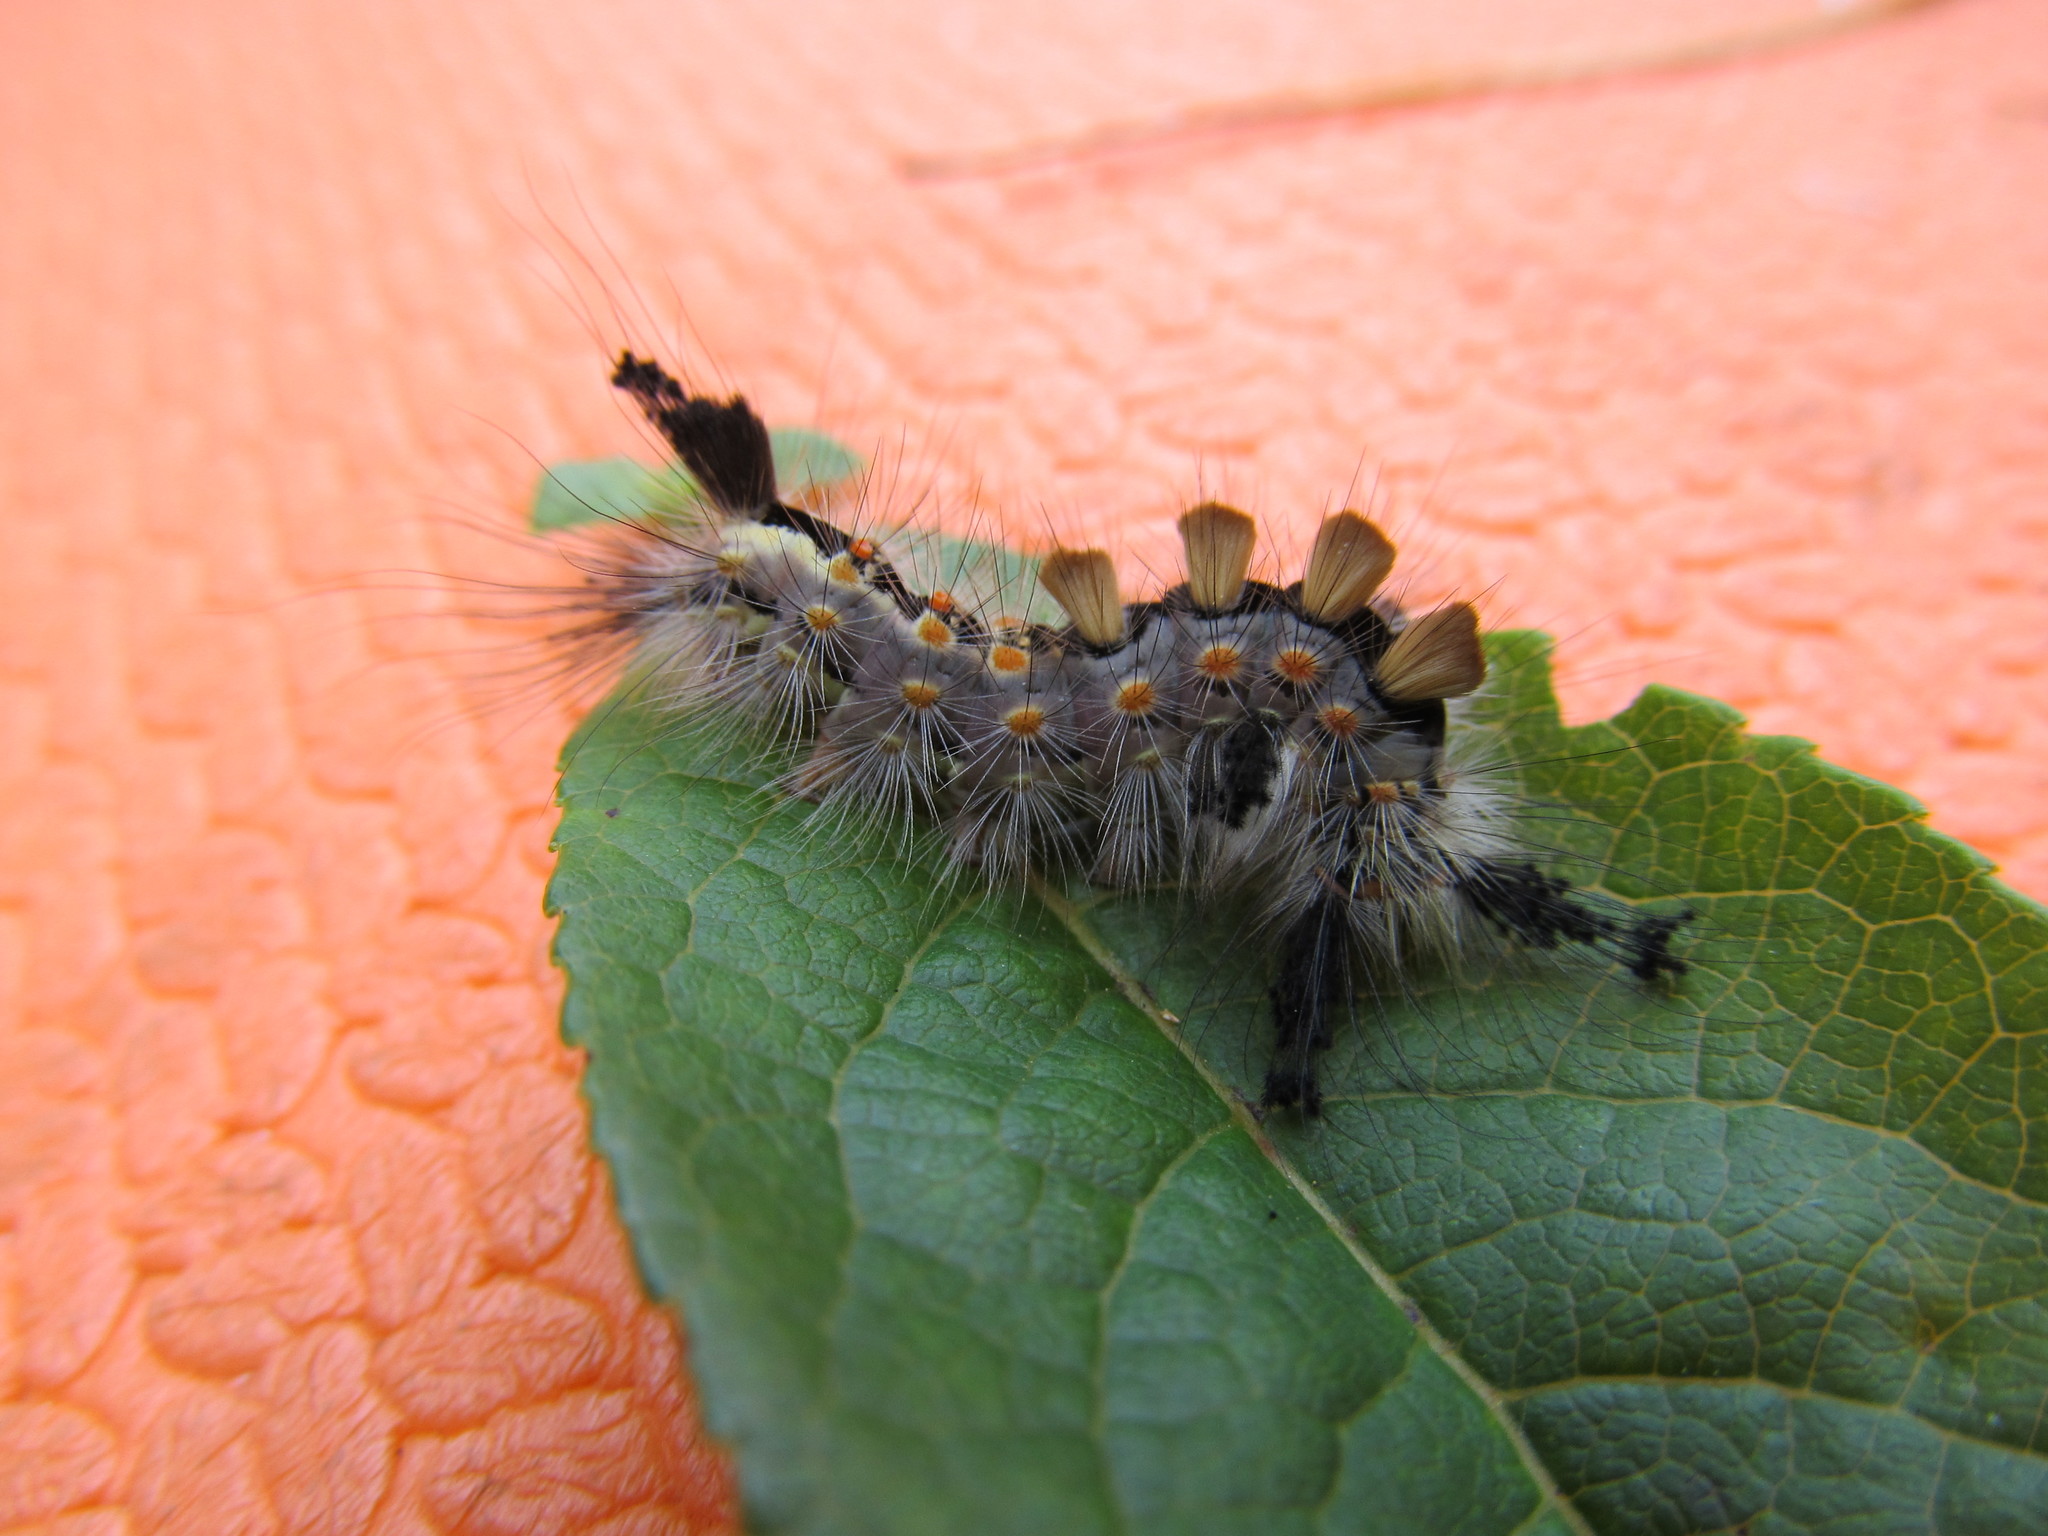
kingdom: Animalia
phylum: Arthropoda
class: Insecta
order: Lepidoptera
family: Erebidae
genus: Orgyia
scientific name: Orgyia antiqua
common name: Vapourer
